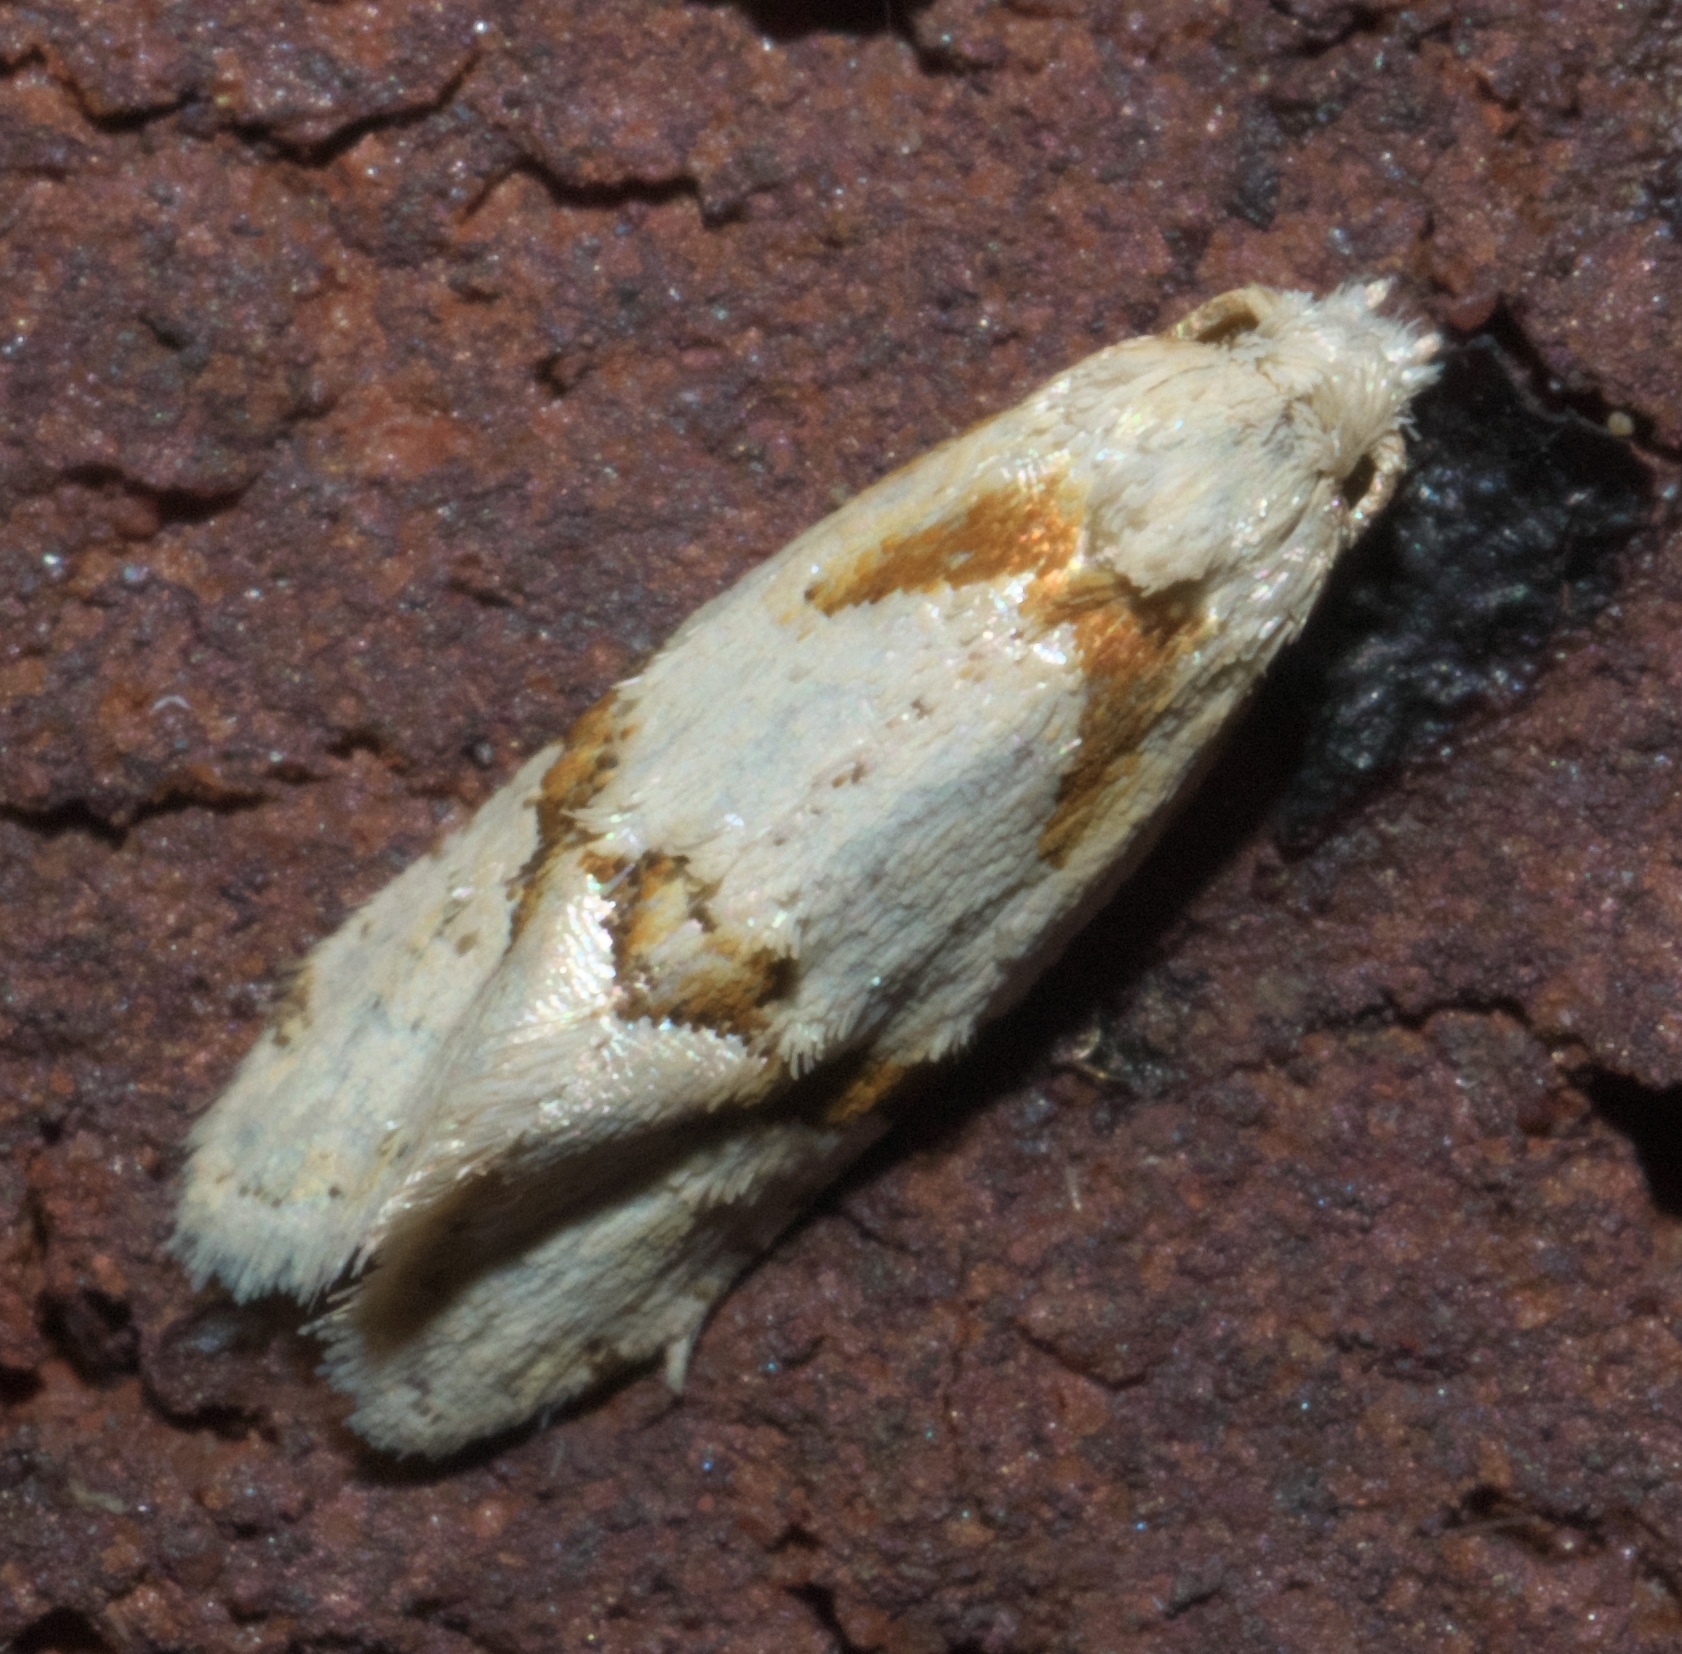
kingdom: Animalia
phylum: Arthropoda
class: Insecta
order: Lepidoptera
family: Tortricidae
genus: Aethes
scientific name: Aethes seriatana
